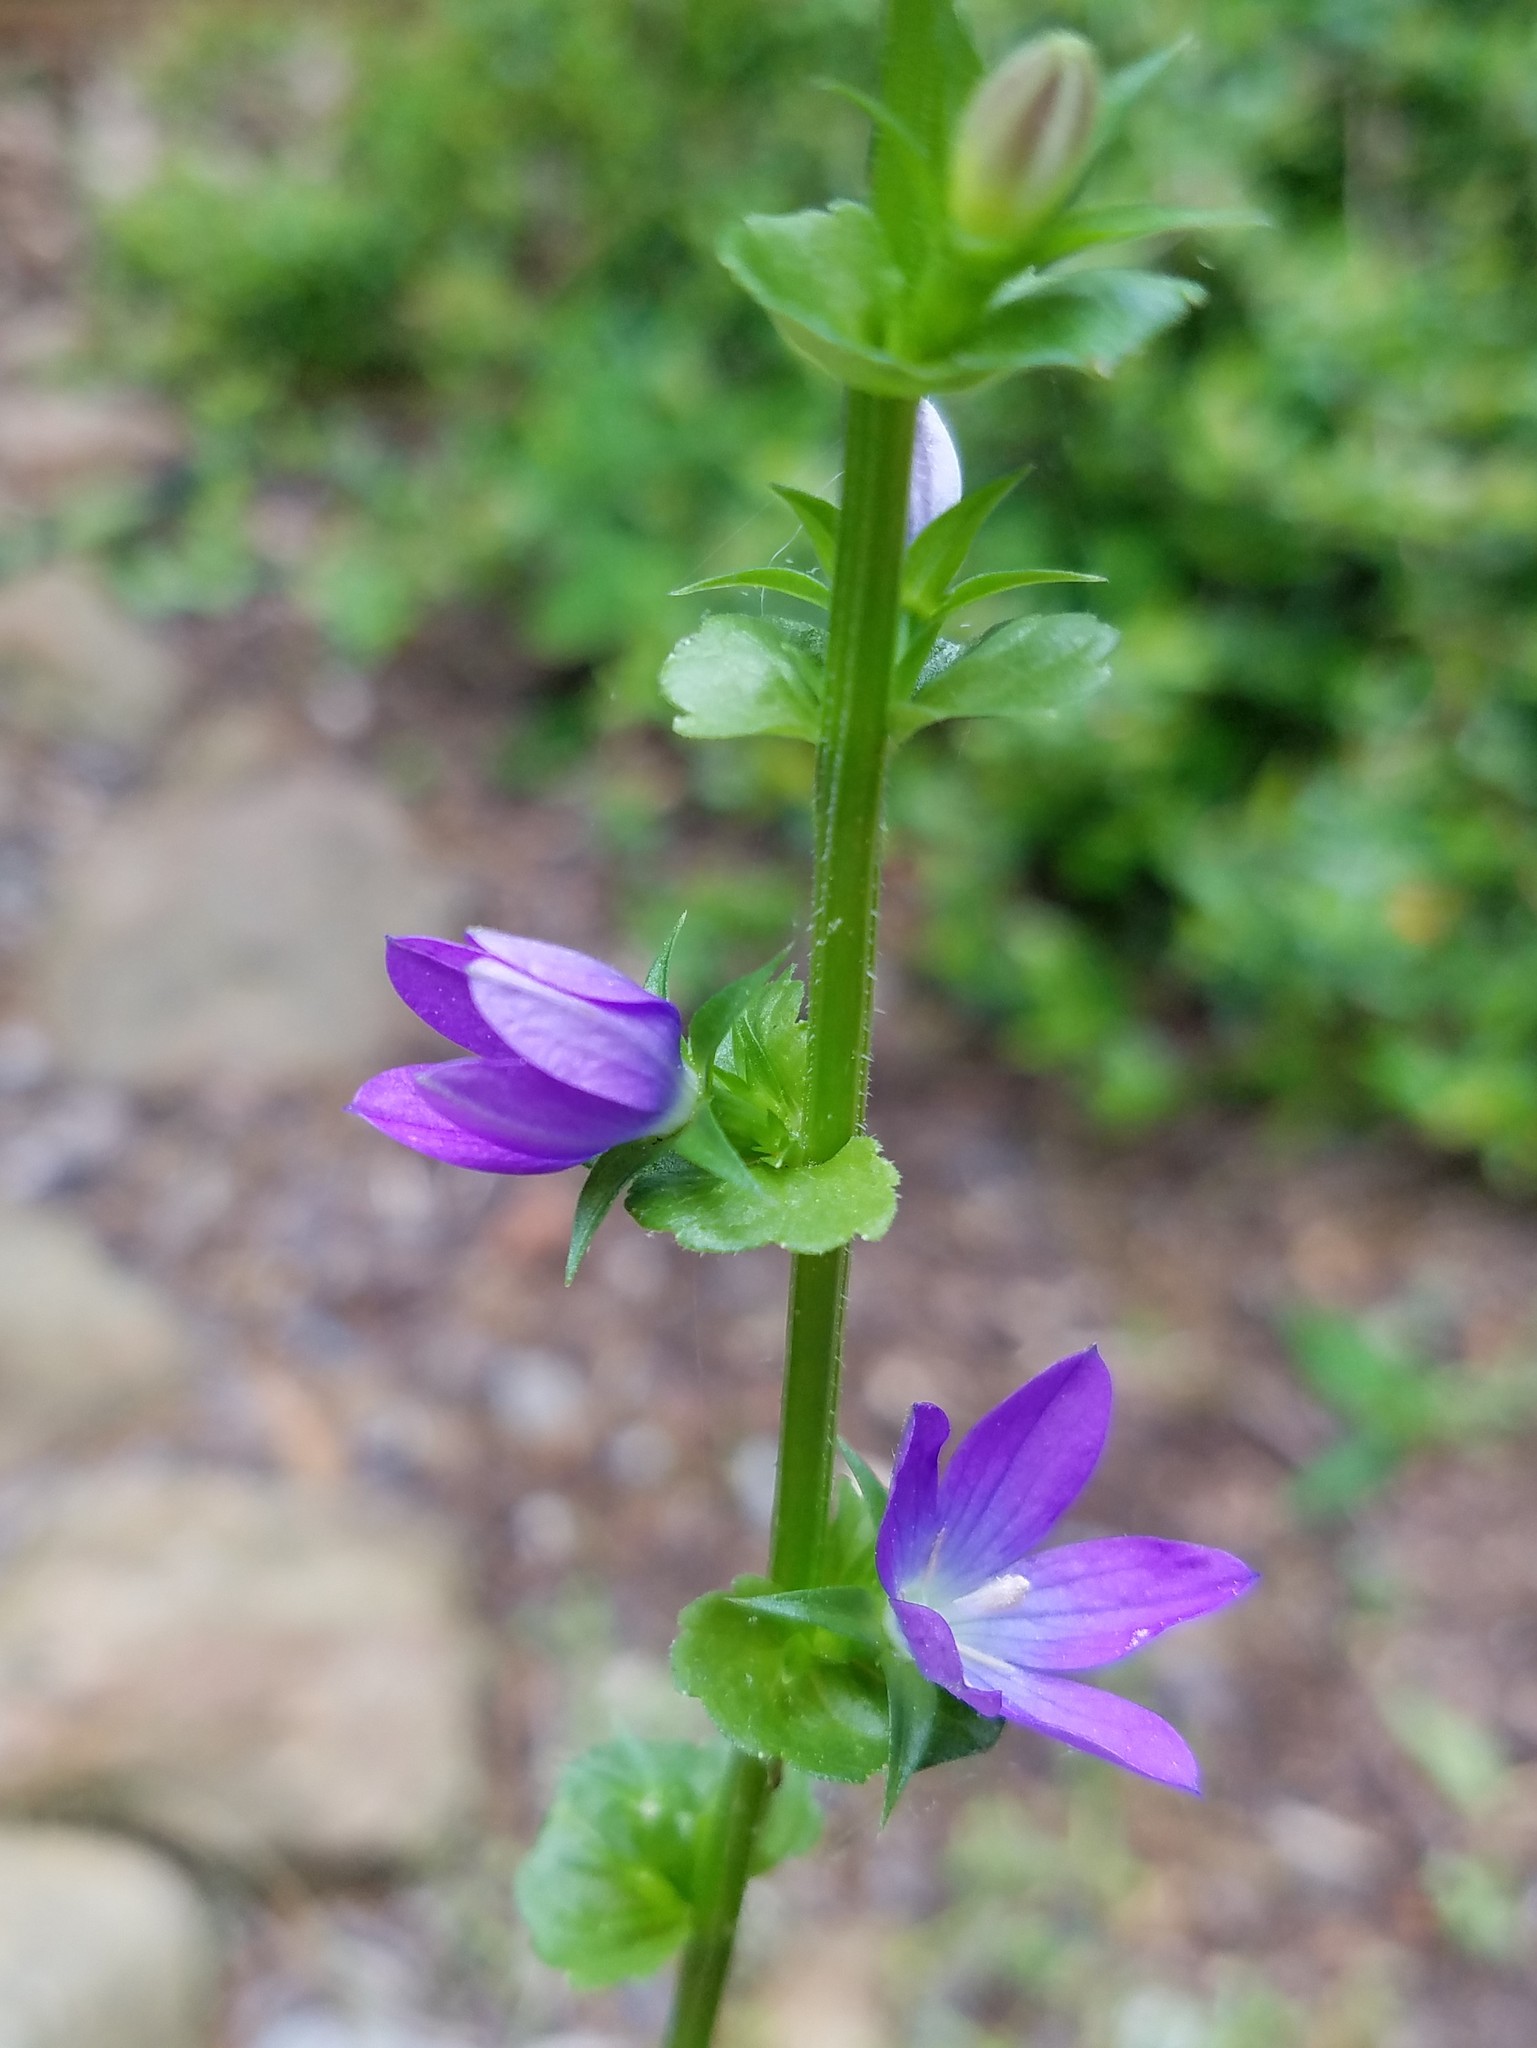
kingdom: Plantae
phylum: Tracheophyta
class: Magnoliopsida
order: Asterales
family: Campanulaceae
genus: Triodanis
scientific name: Triodanis perfoliata
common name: Clasping venus' looking-glass
